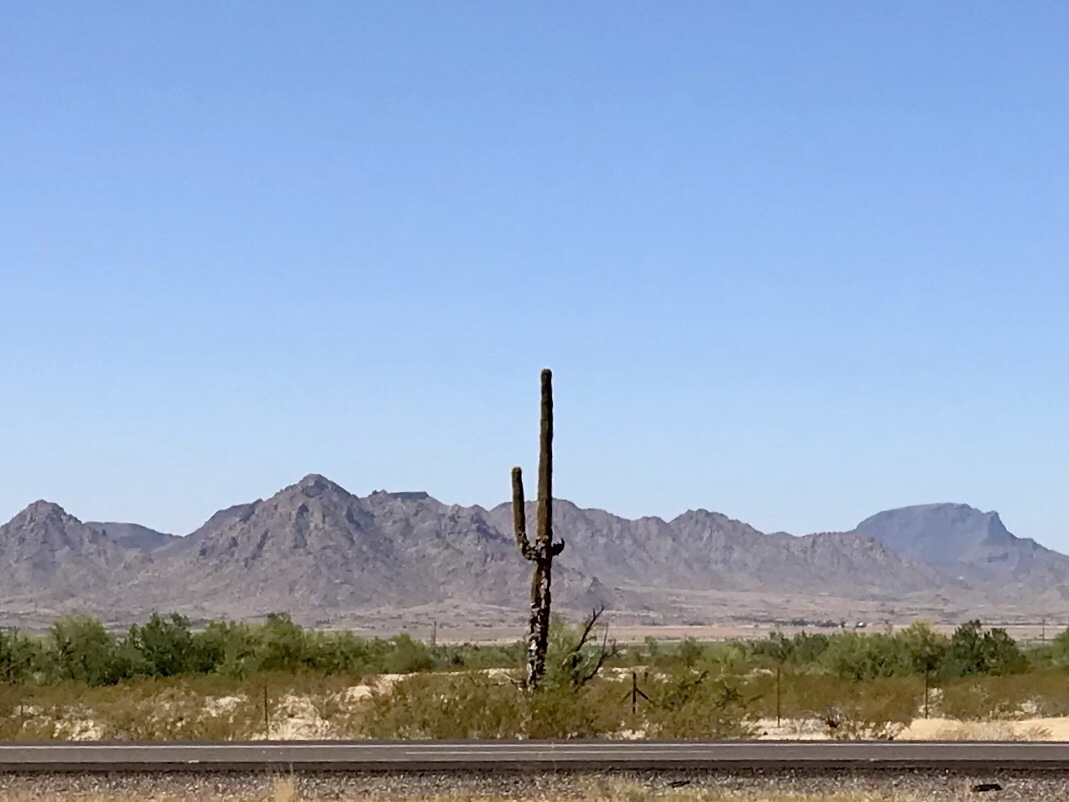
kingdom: Plantae
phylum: Tracheophyta
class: Magnoliopsida
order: Caryophyllales
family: Cactaceae
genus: Carnegiea
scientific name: Carnegiea gigantea
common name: Saguaro
